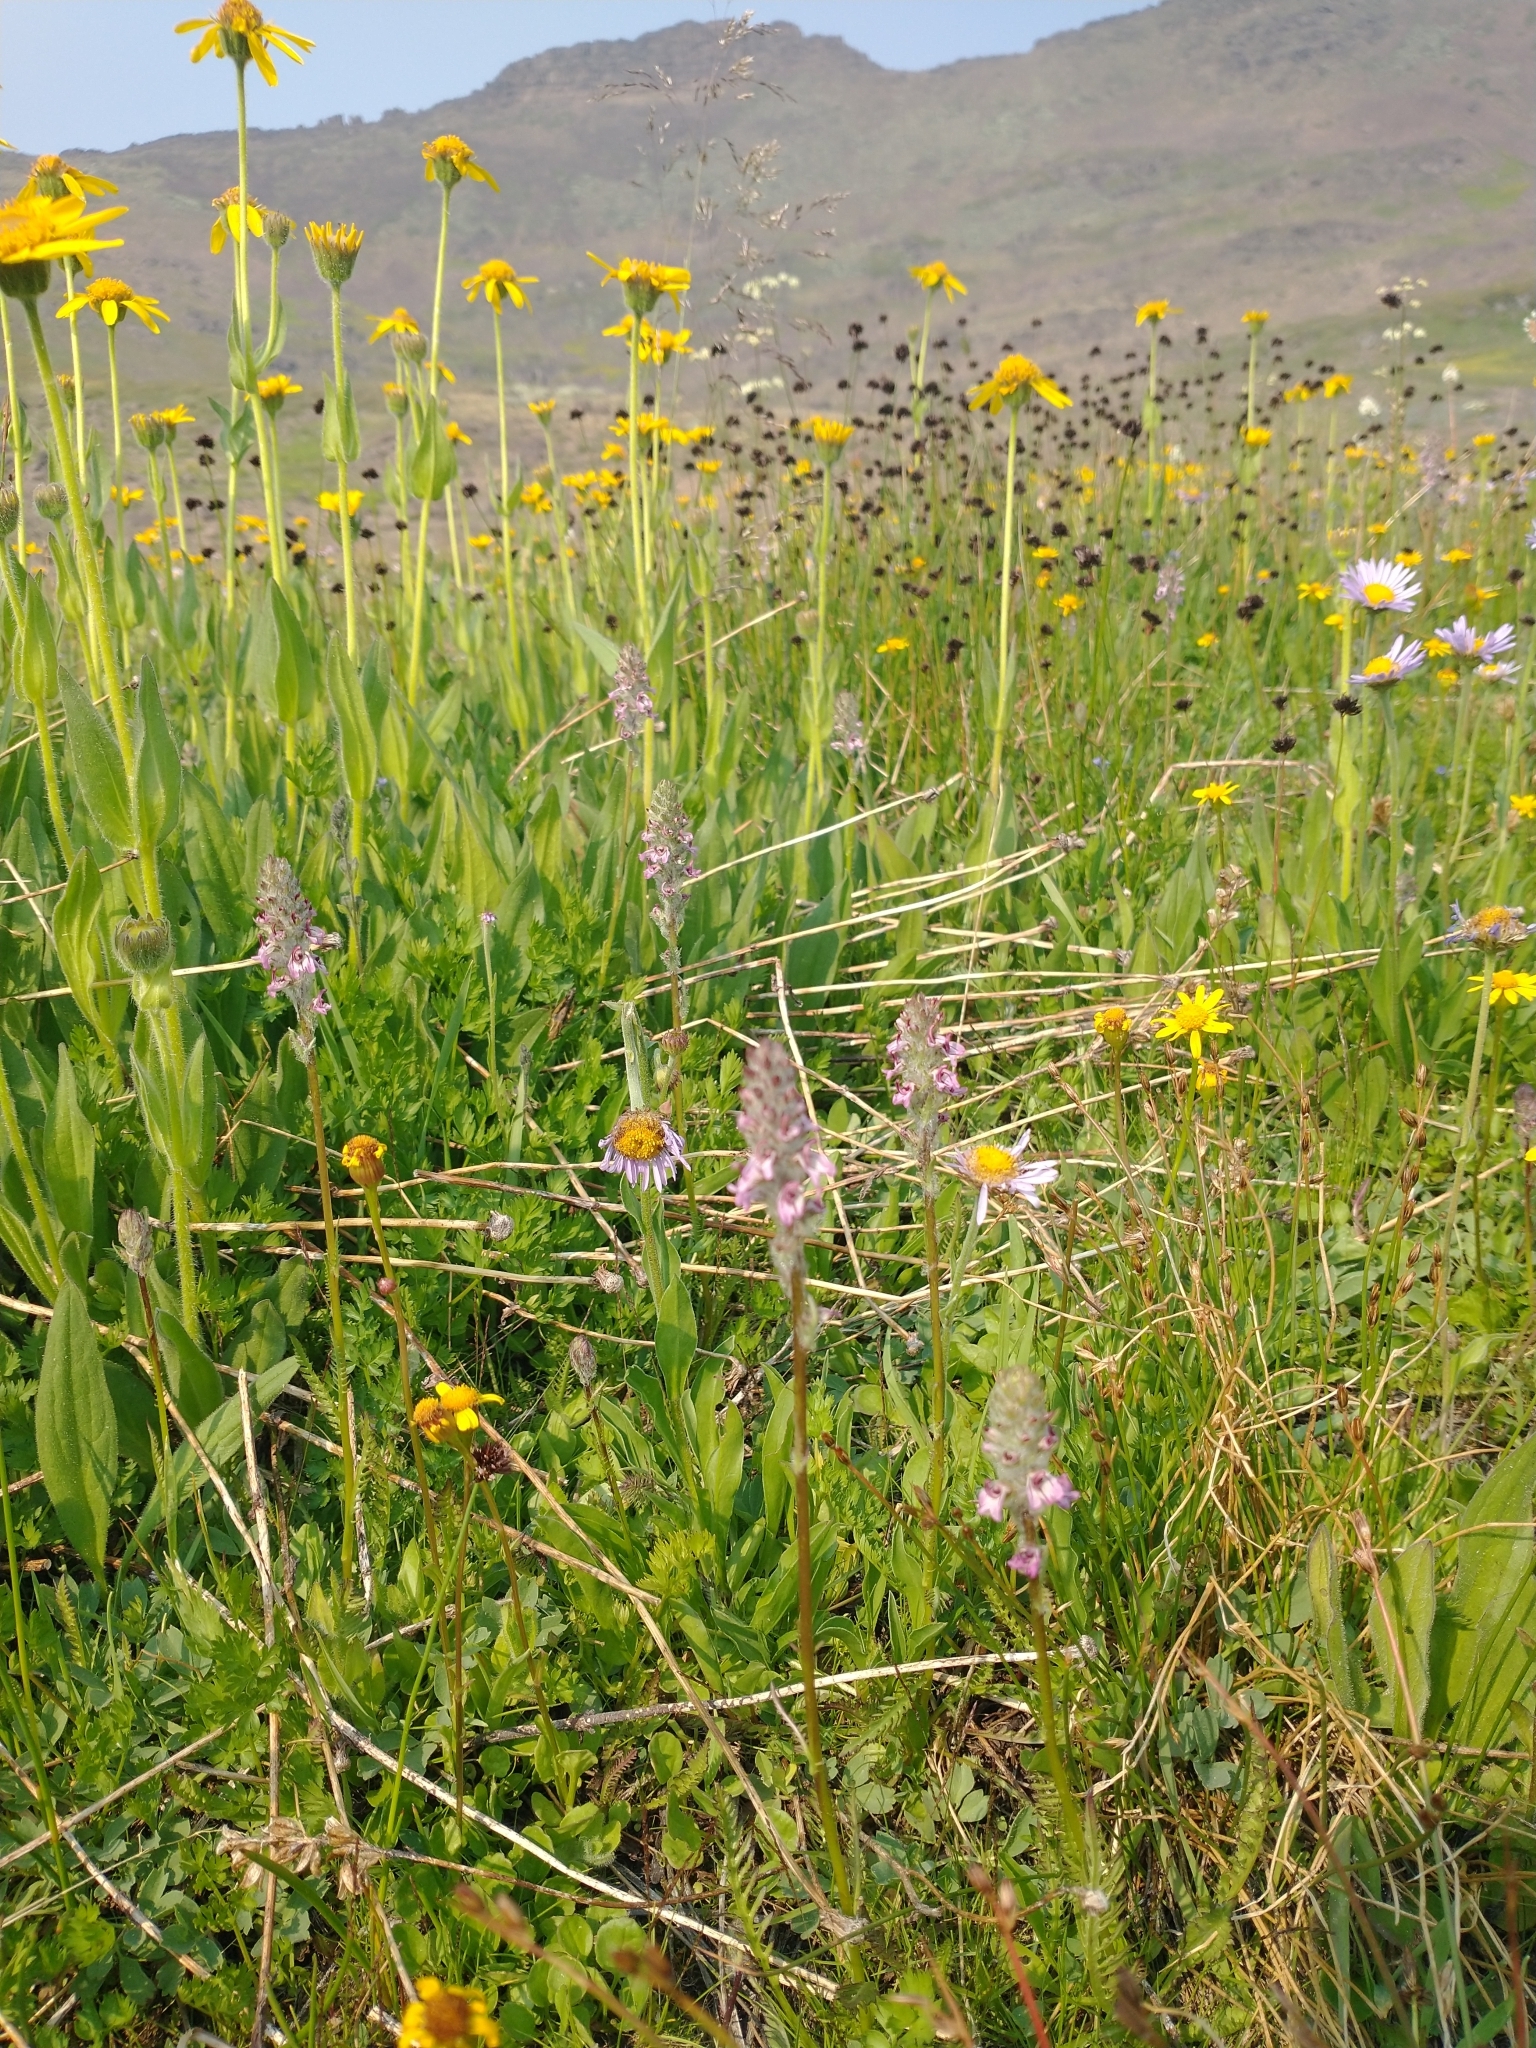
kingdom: Plantae
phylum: Tracheophyta
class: Magnoliopsida
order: Lamiales
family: Orobanchaceae
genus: Pedicularis
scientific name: Pedicularis attollens
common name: Slender pedicularis
